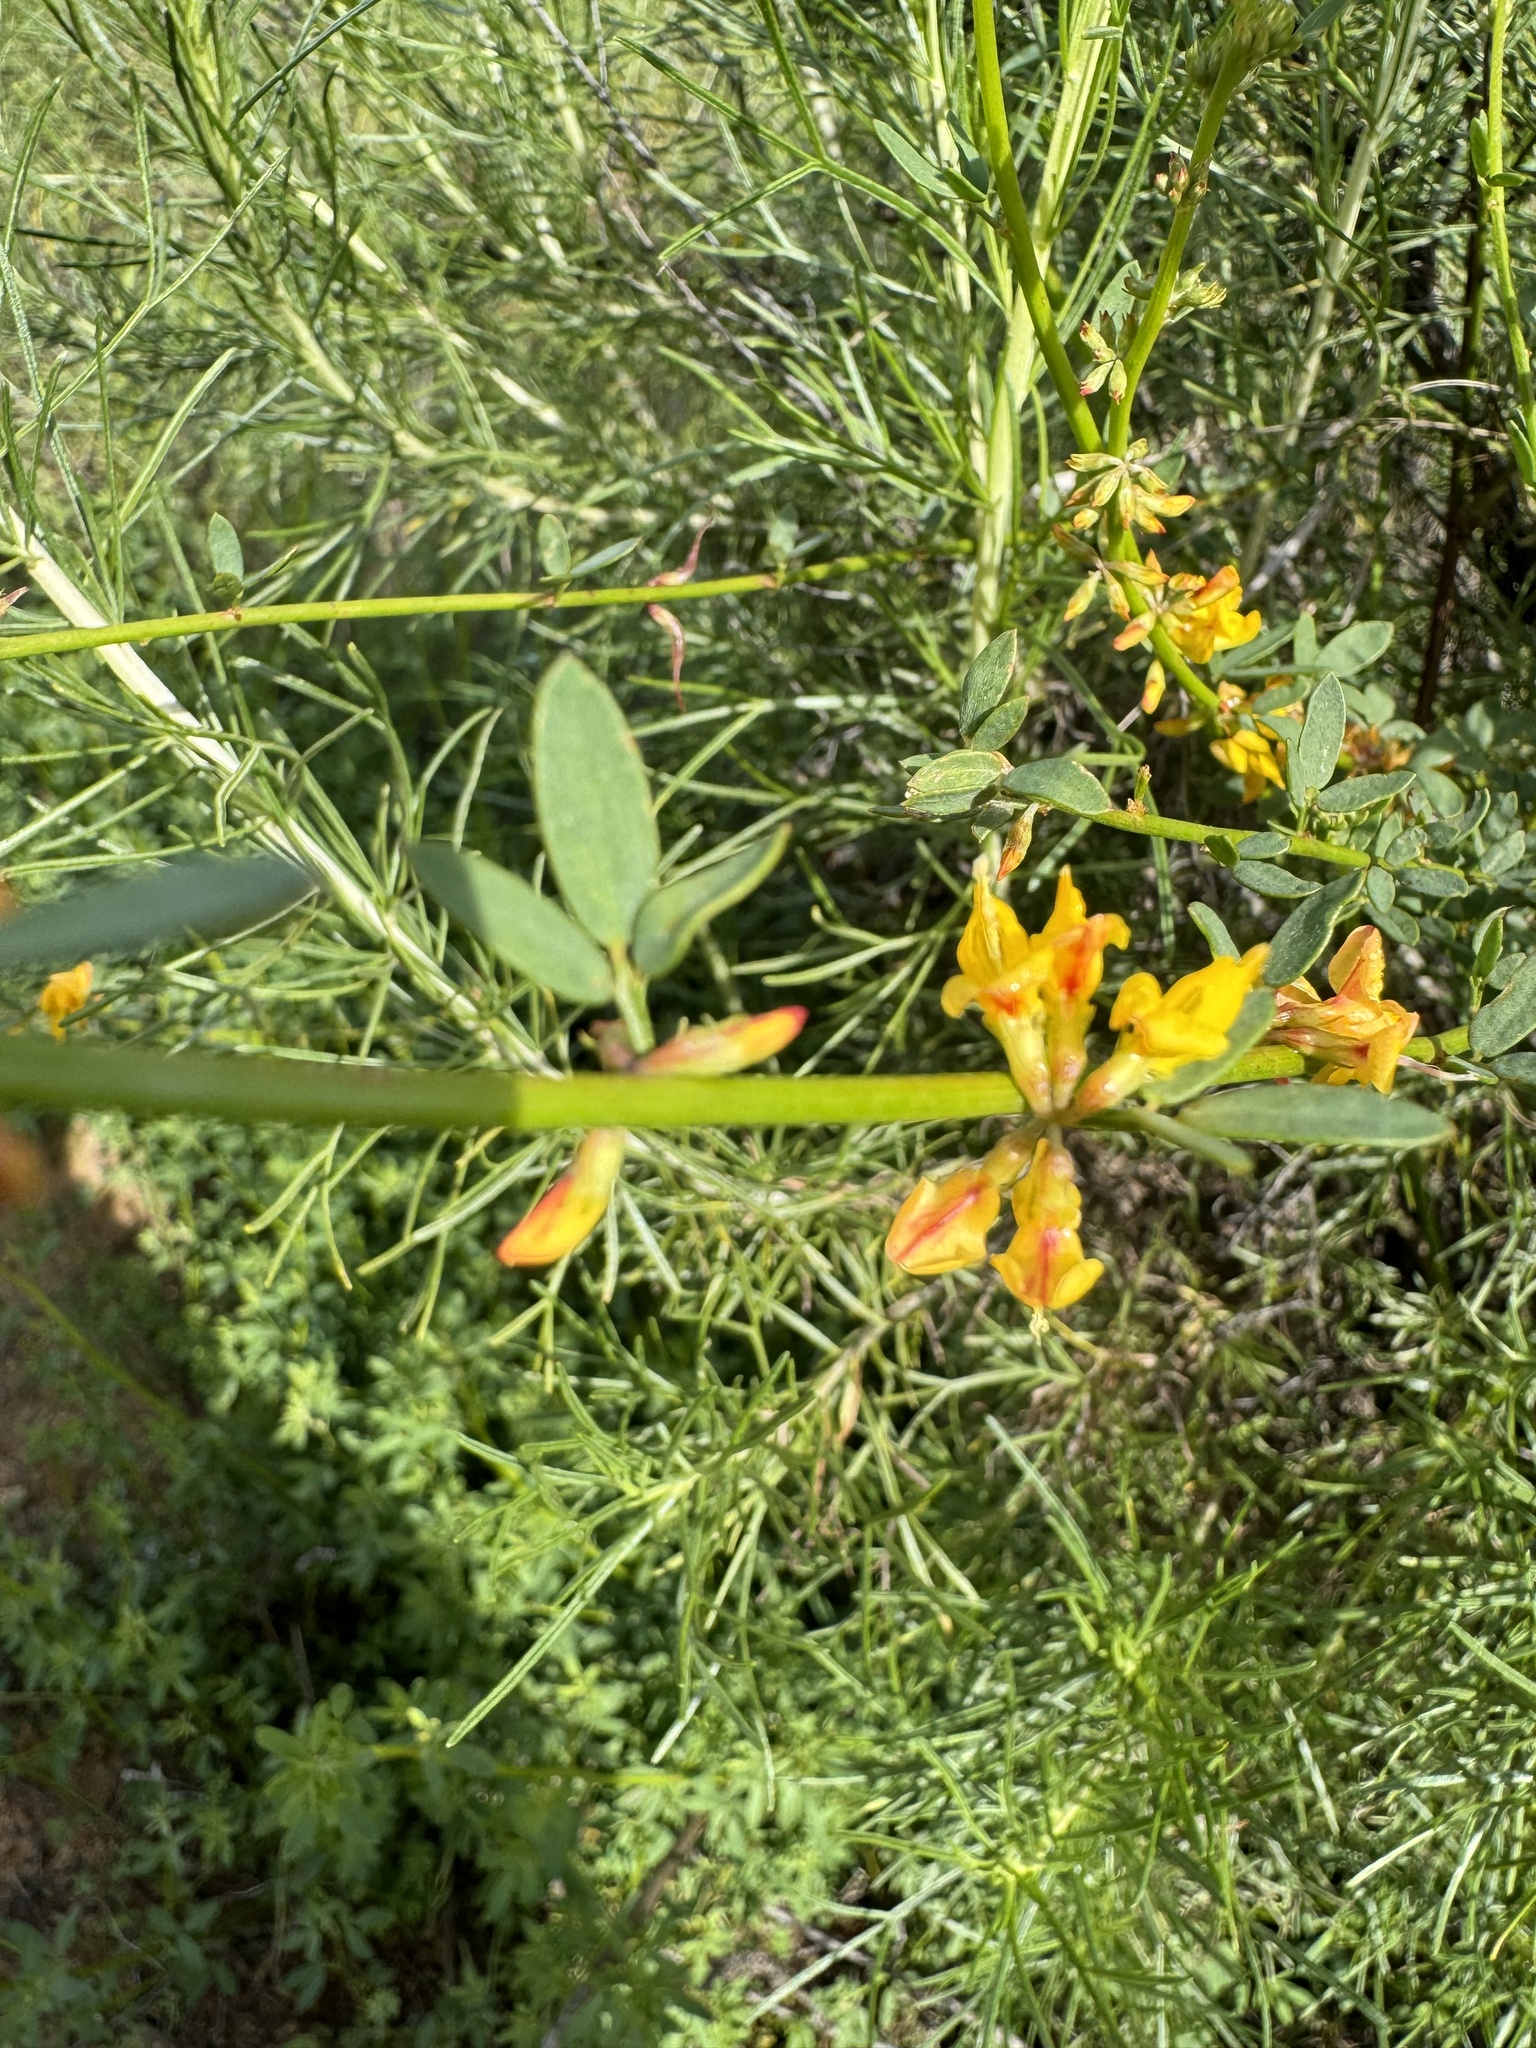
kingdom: Plantae
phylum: Tracheophyta
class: Magnoliopsida
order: Fabales
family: Fabaceae
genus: Acmispon
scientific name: Acmispon glaber
